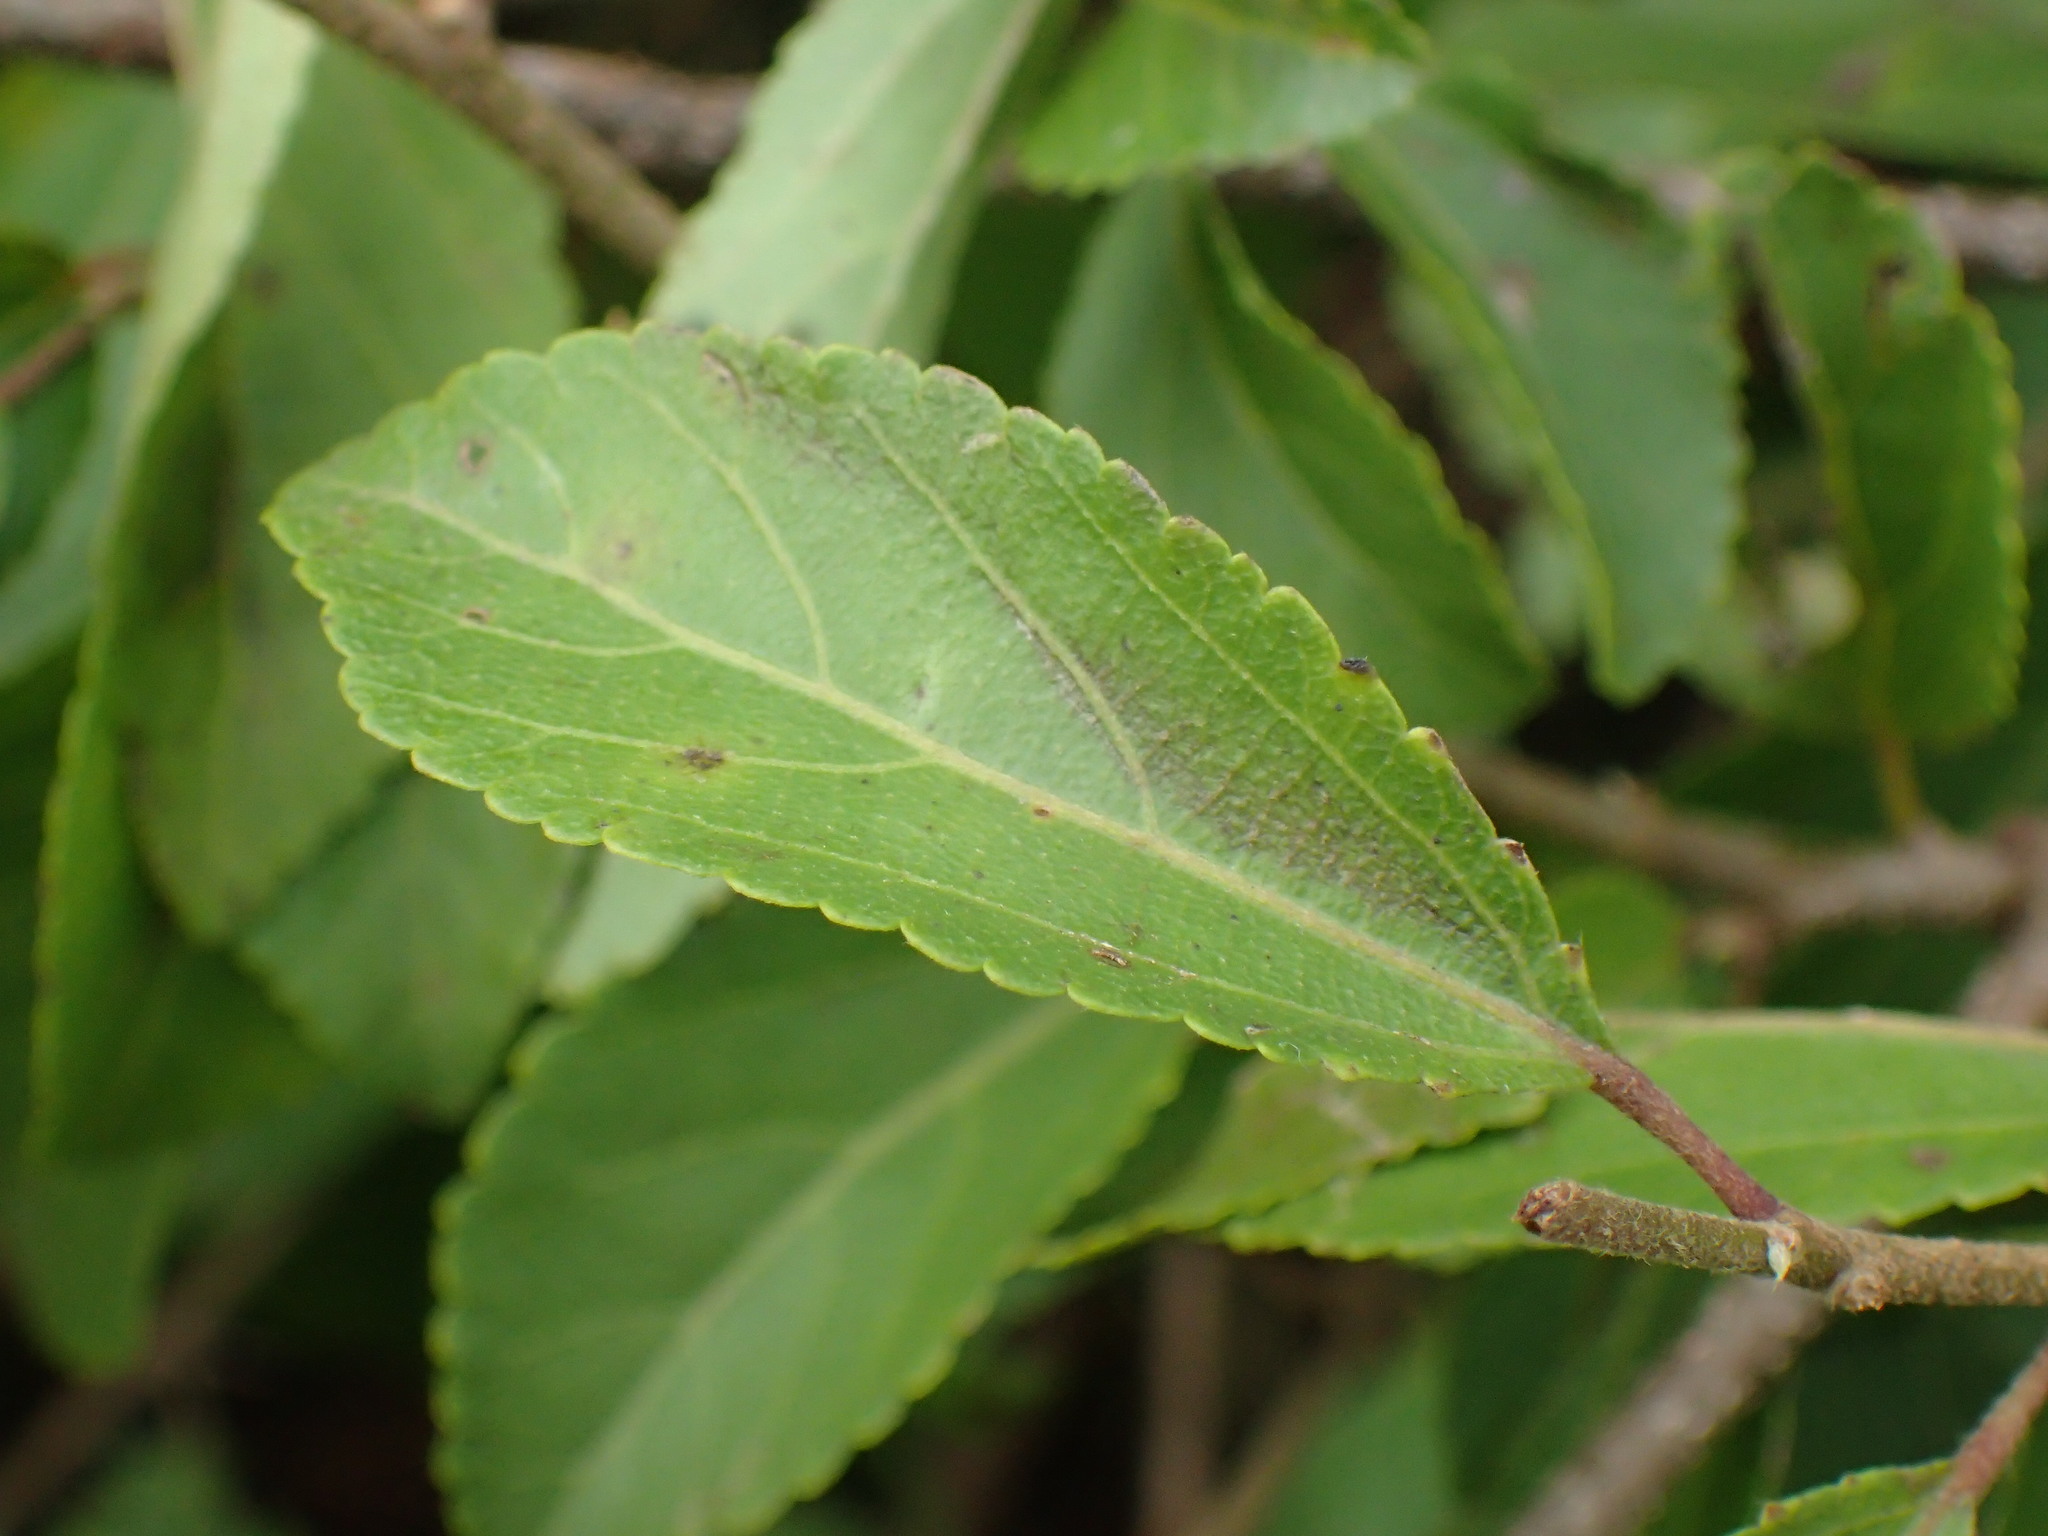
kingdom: Plantae
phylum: Tracheophyta
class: Magnoliopsida
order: Malvales
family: Malvaceae
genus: Grewia
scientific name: Grewia occidentalis
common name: Crossberry
